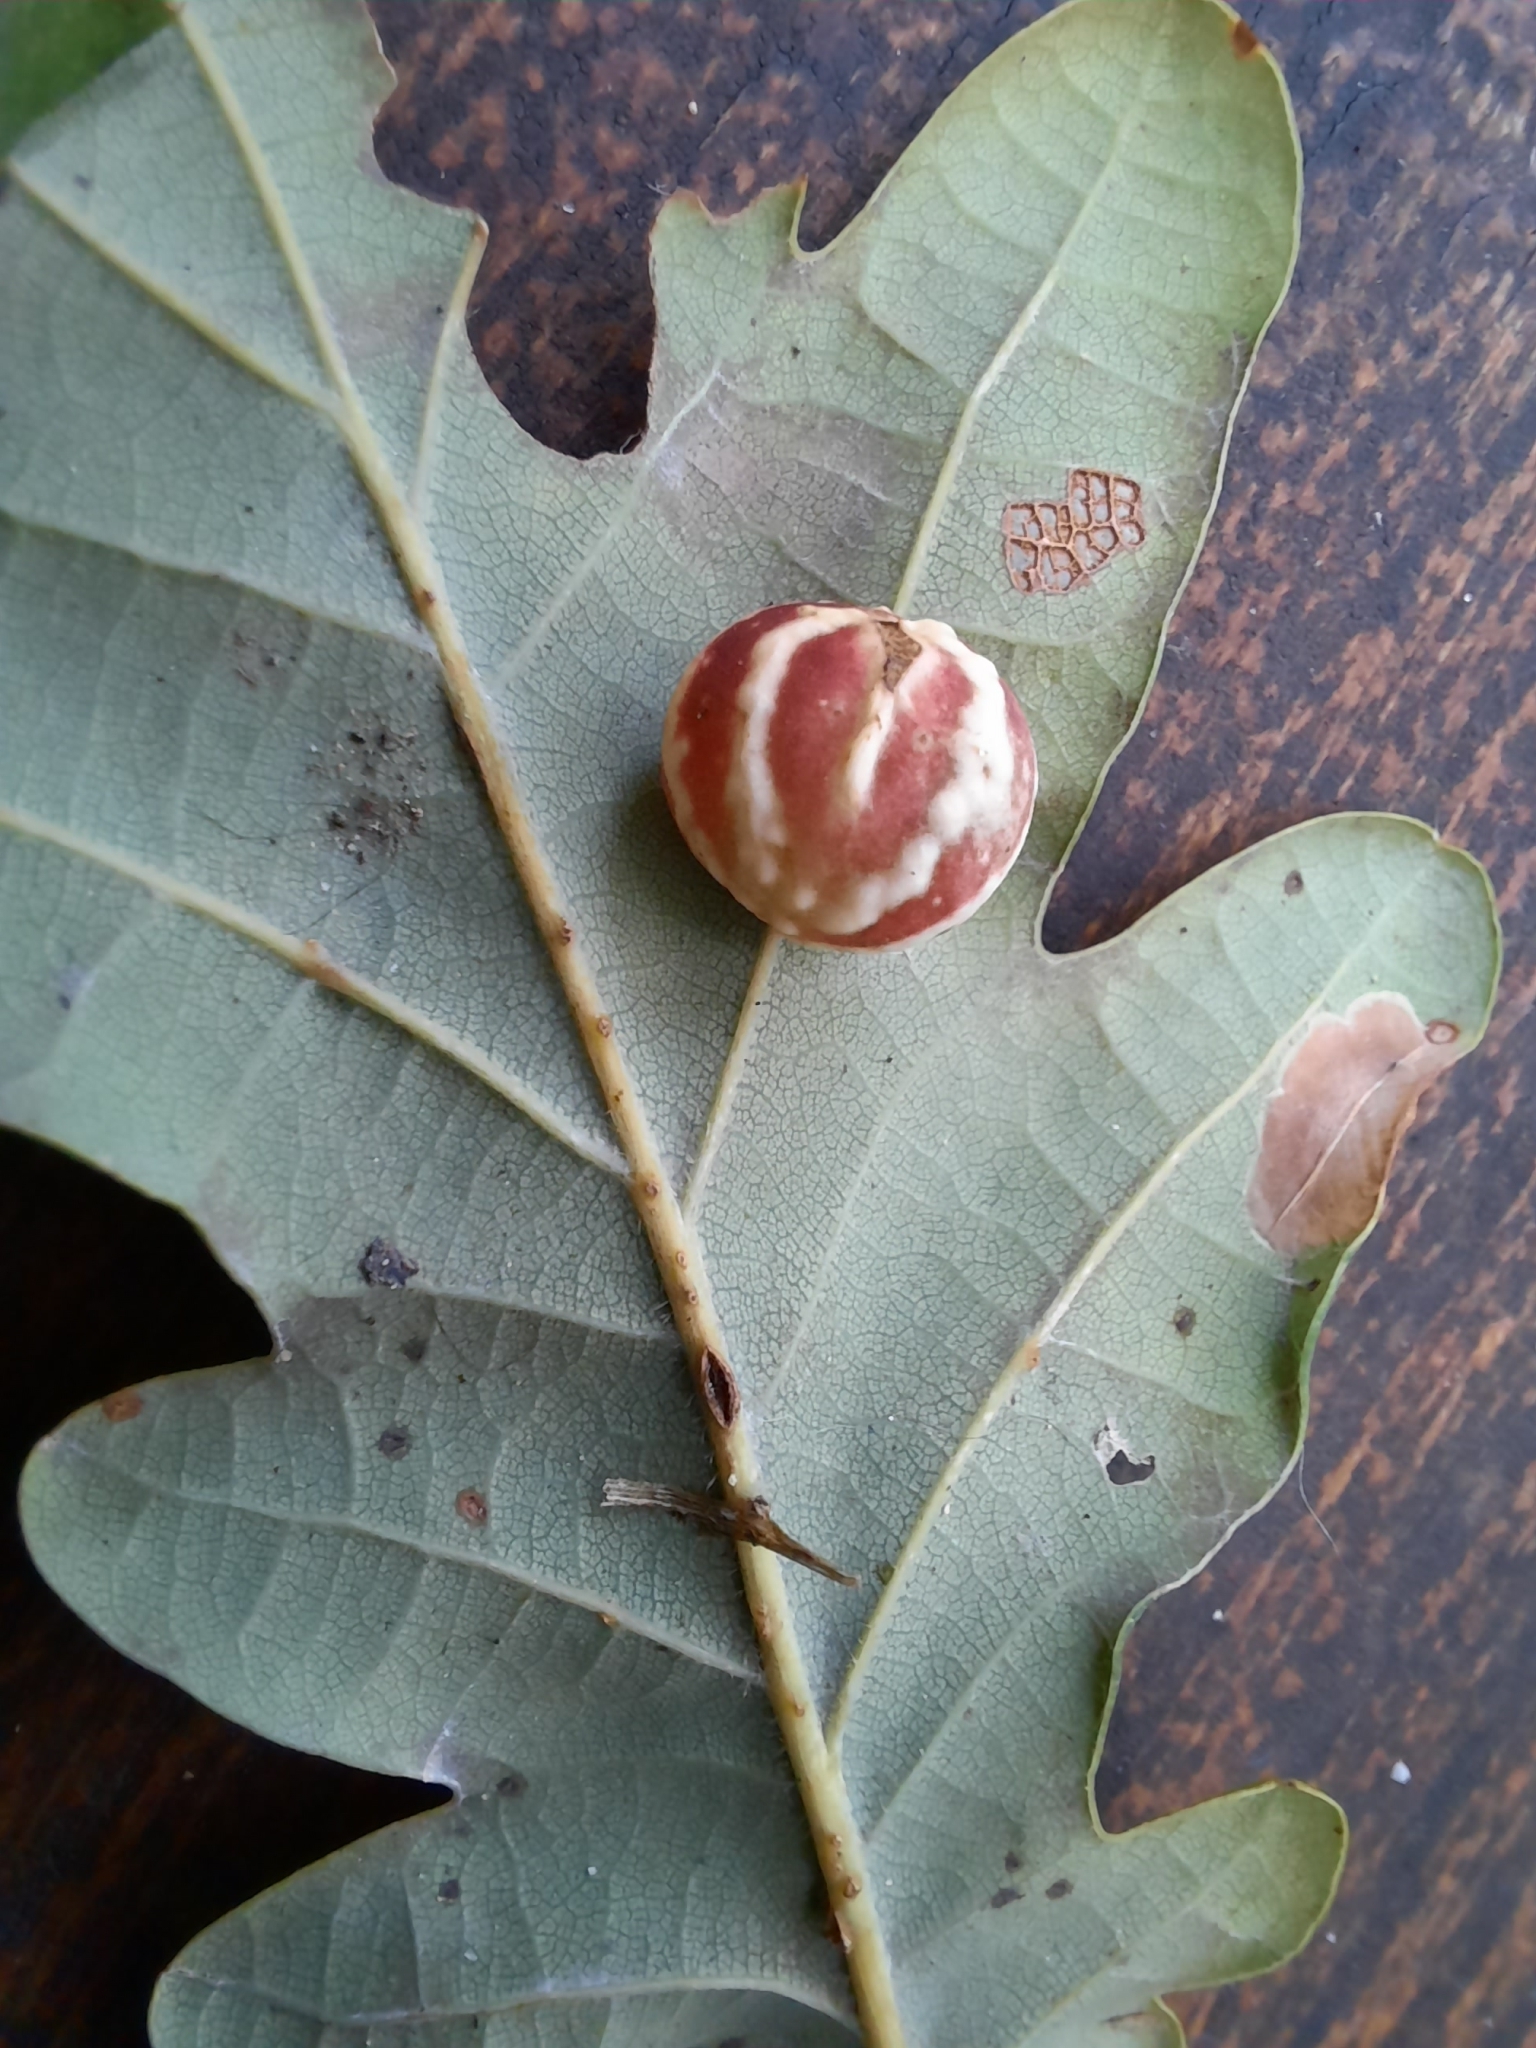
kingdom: Animalia
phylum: Arthropoda
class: Insecta
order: Hymenoptera
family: Cynipidae
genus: Cynips
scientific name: Cynips longiventris
